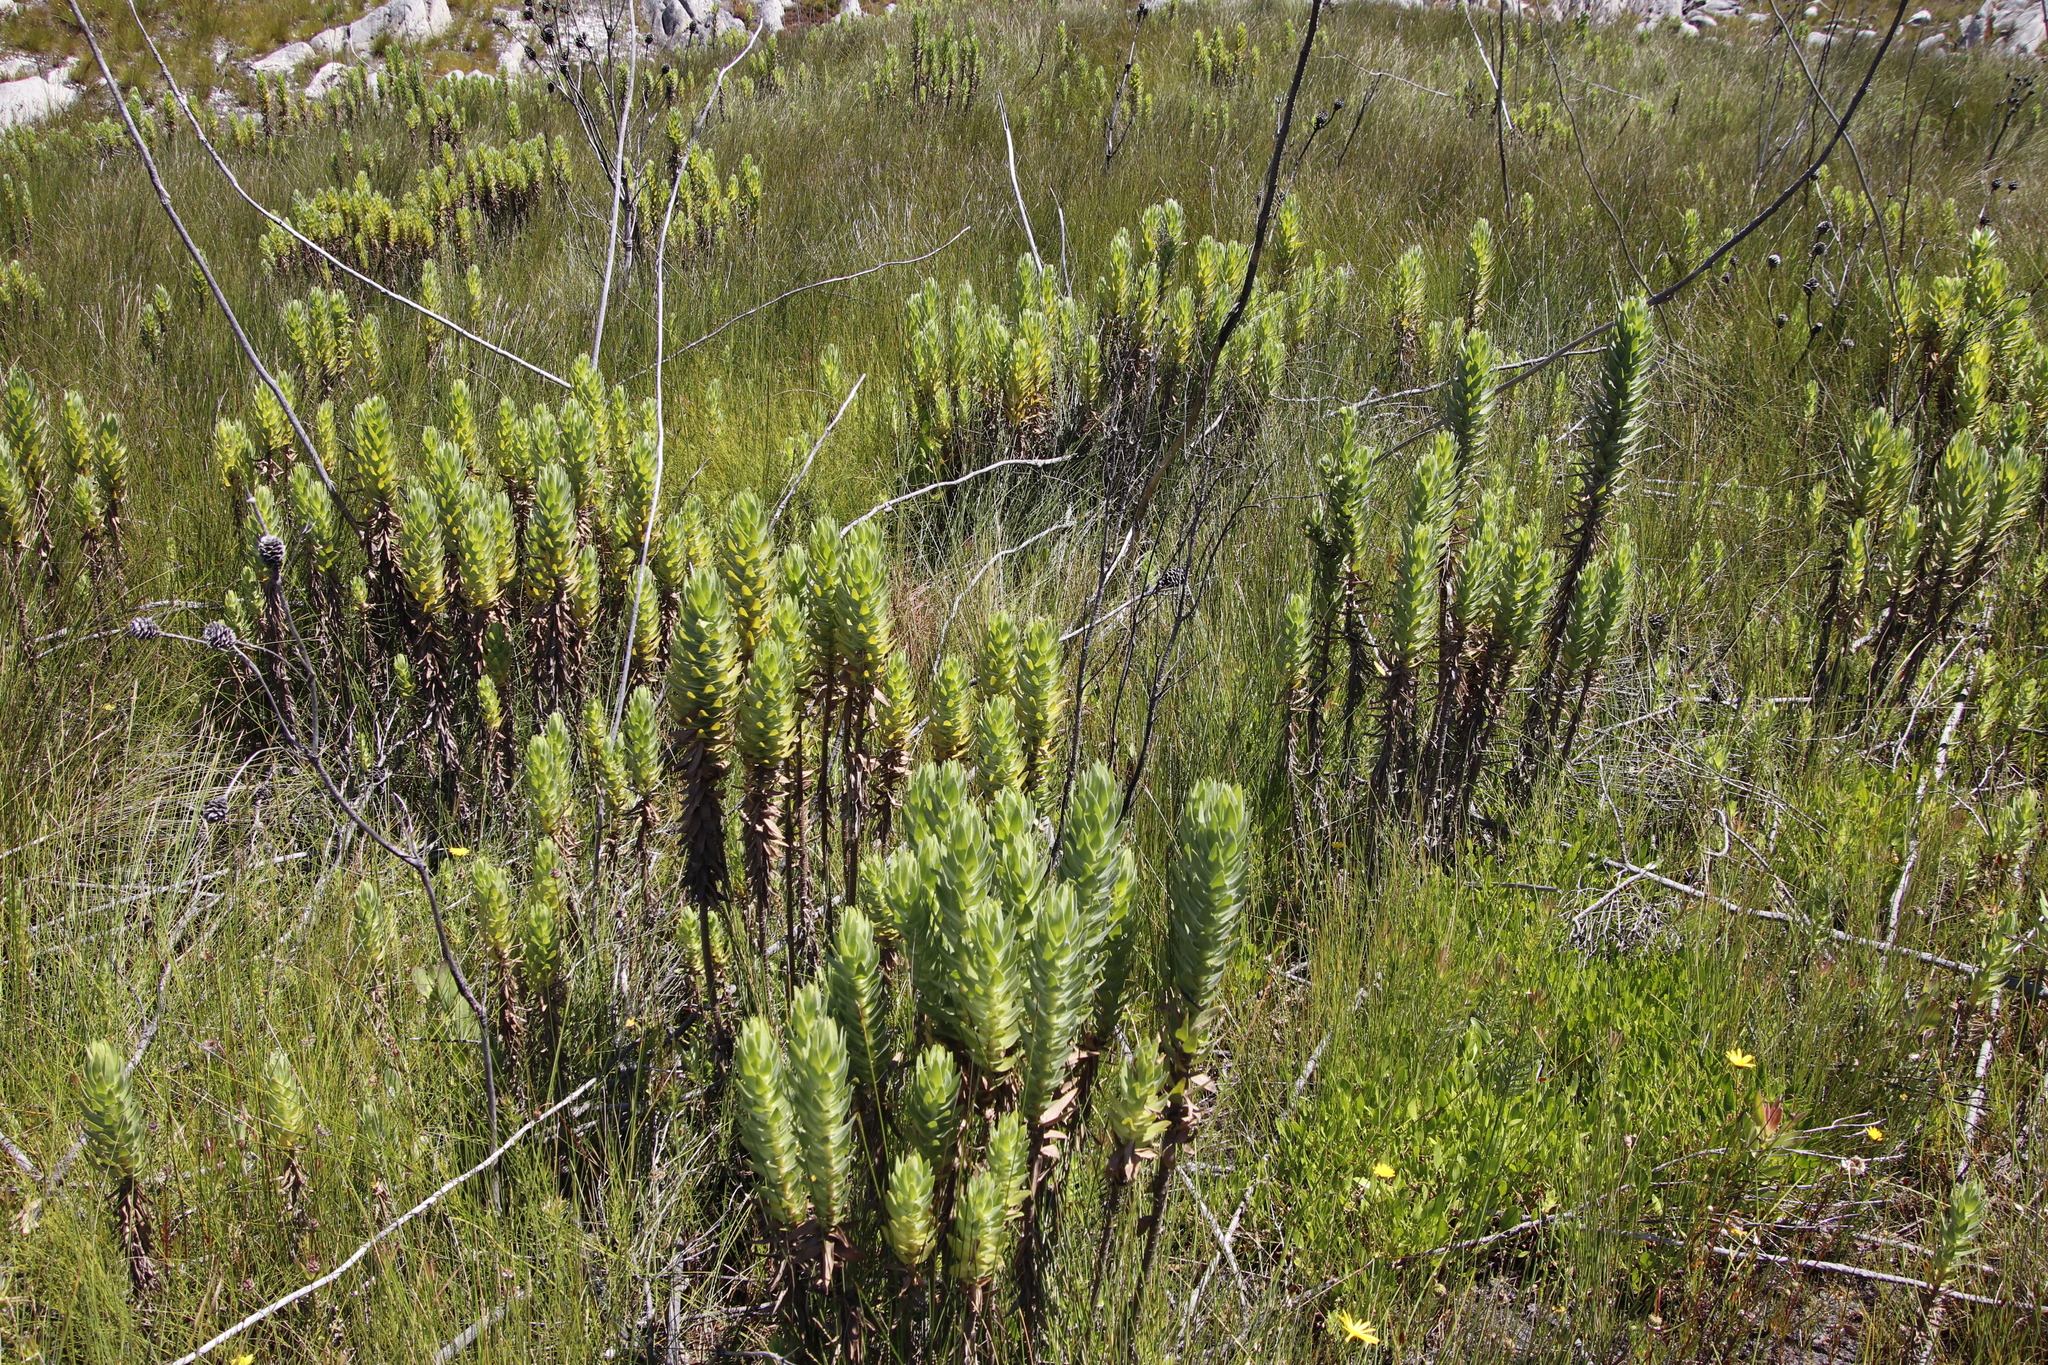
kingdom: Plantae
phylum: Tracheophyta
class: Magnoliopsida
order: Asterales
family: Asteraceae
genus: Osmitopsis
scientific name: Osmitopsis asteriscoides
